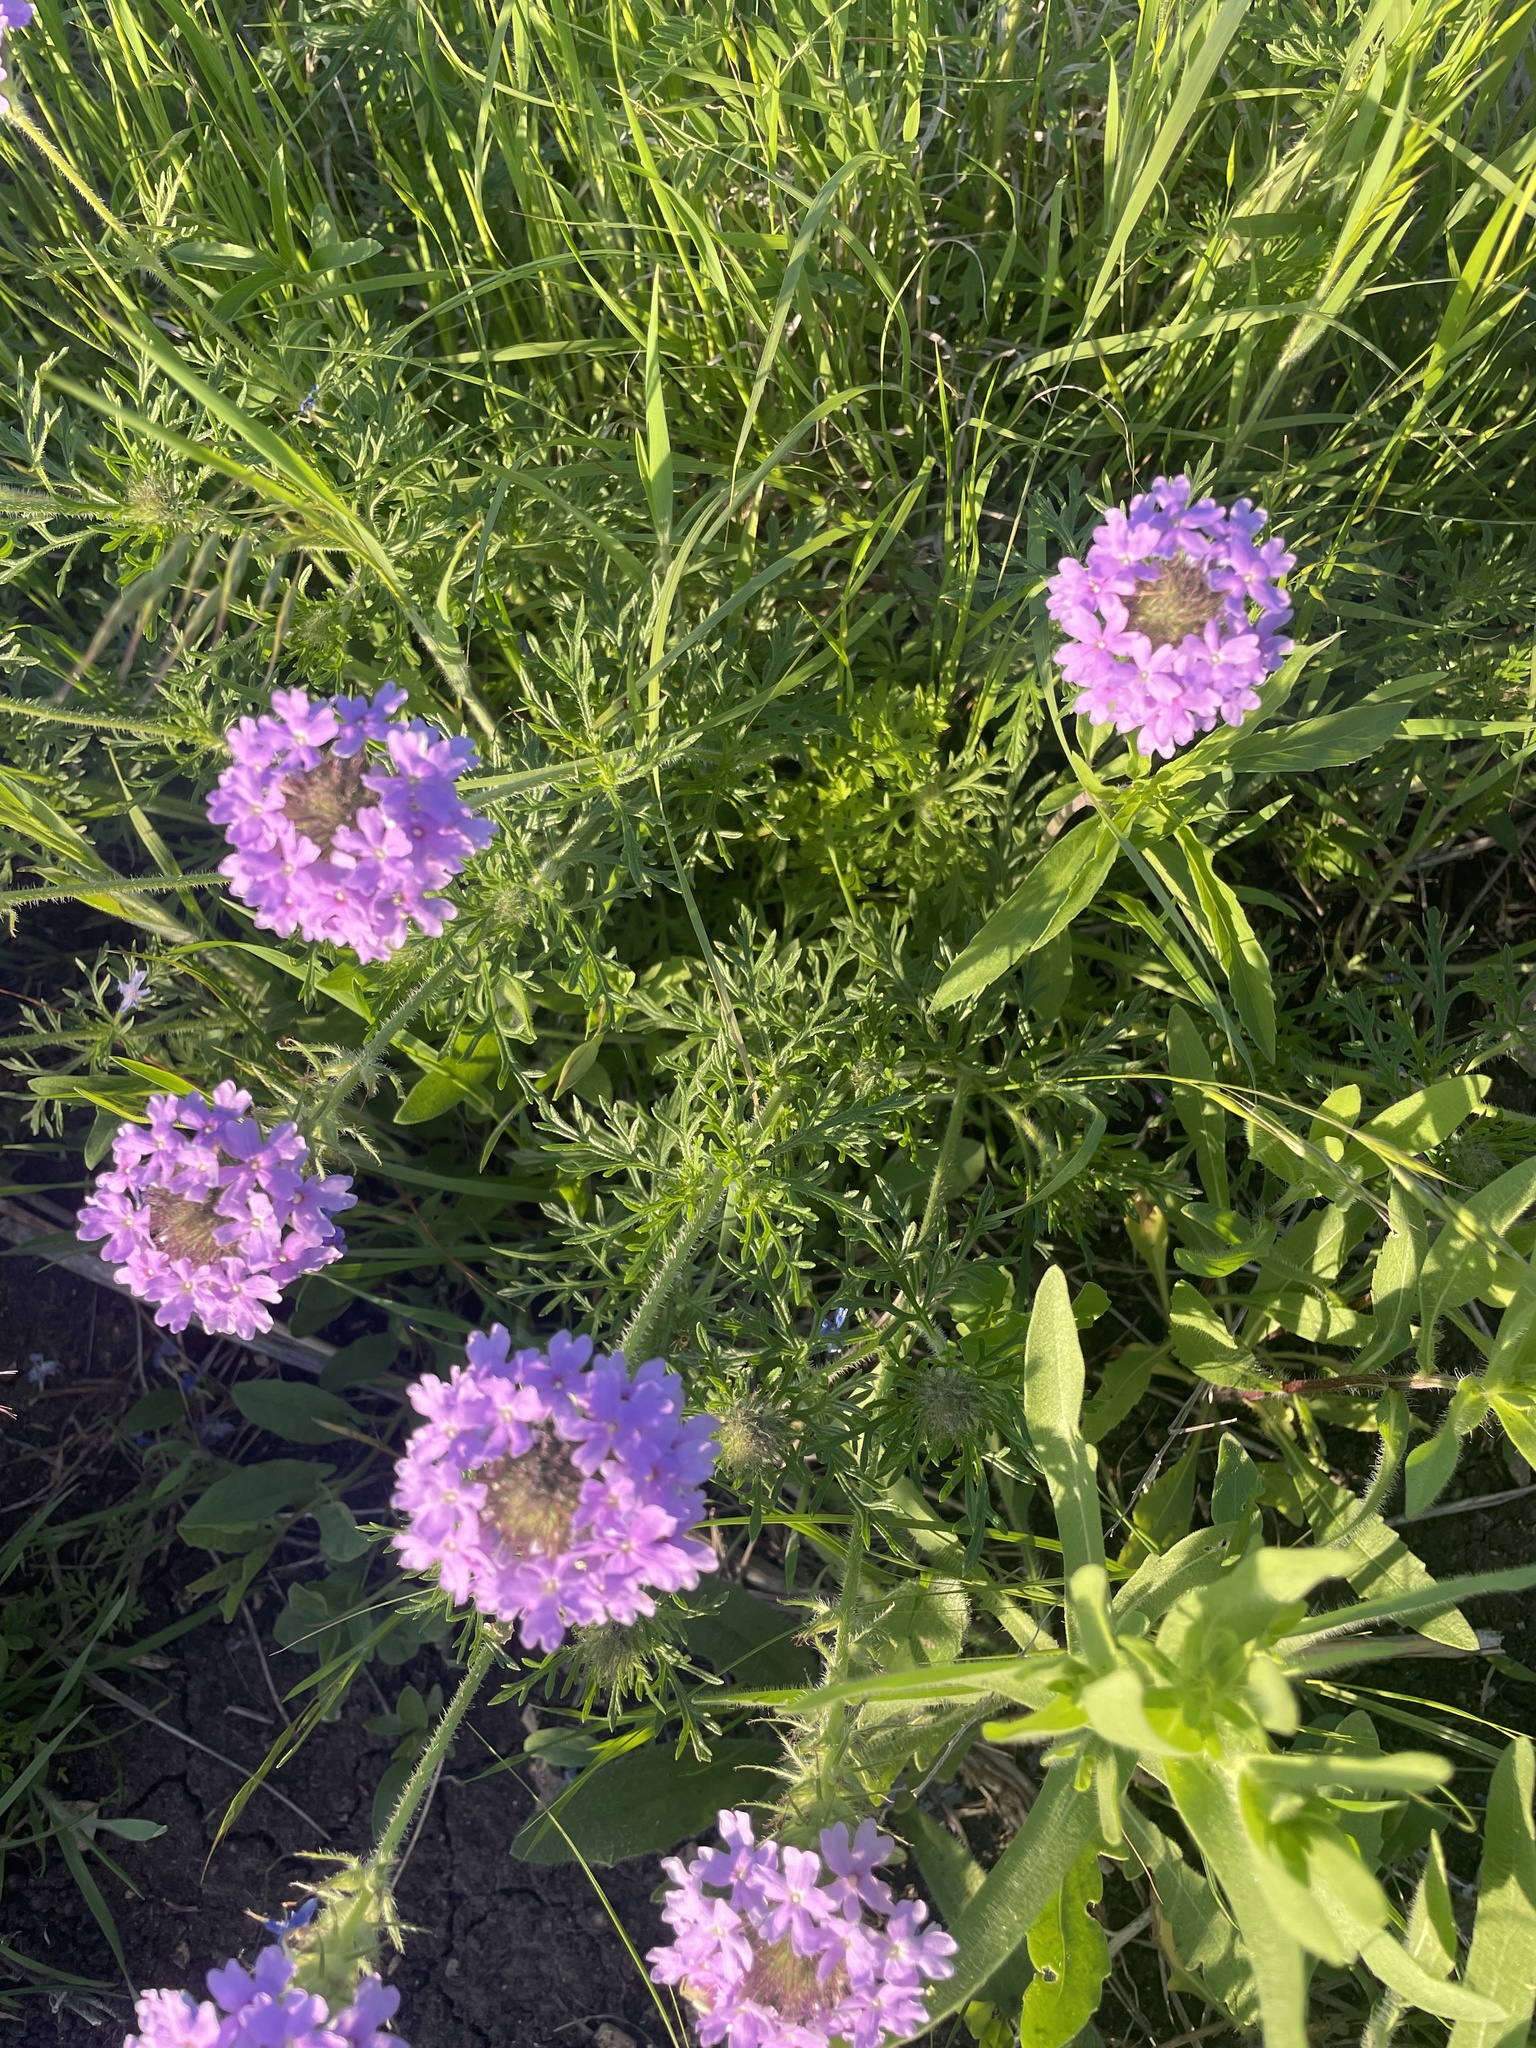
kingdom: Plantae
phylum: Tracheophyta
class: Magnoliopsida
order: Lamiales
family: Verbenaceae
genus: Verbena
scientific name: Verbena bipinnatifida
